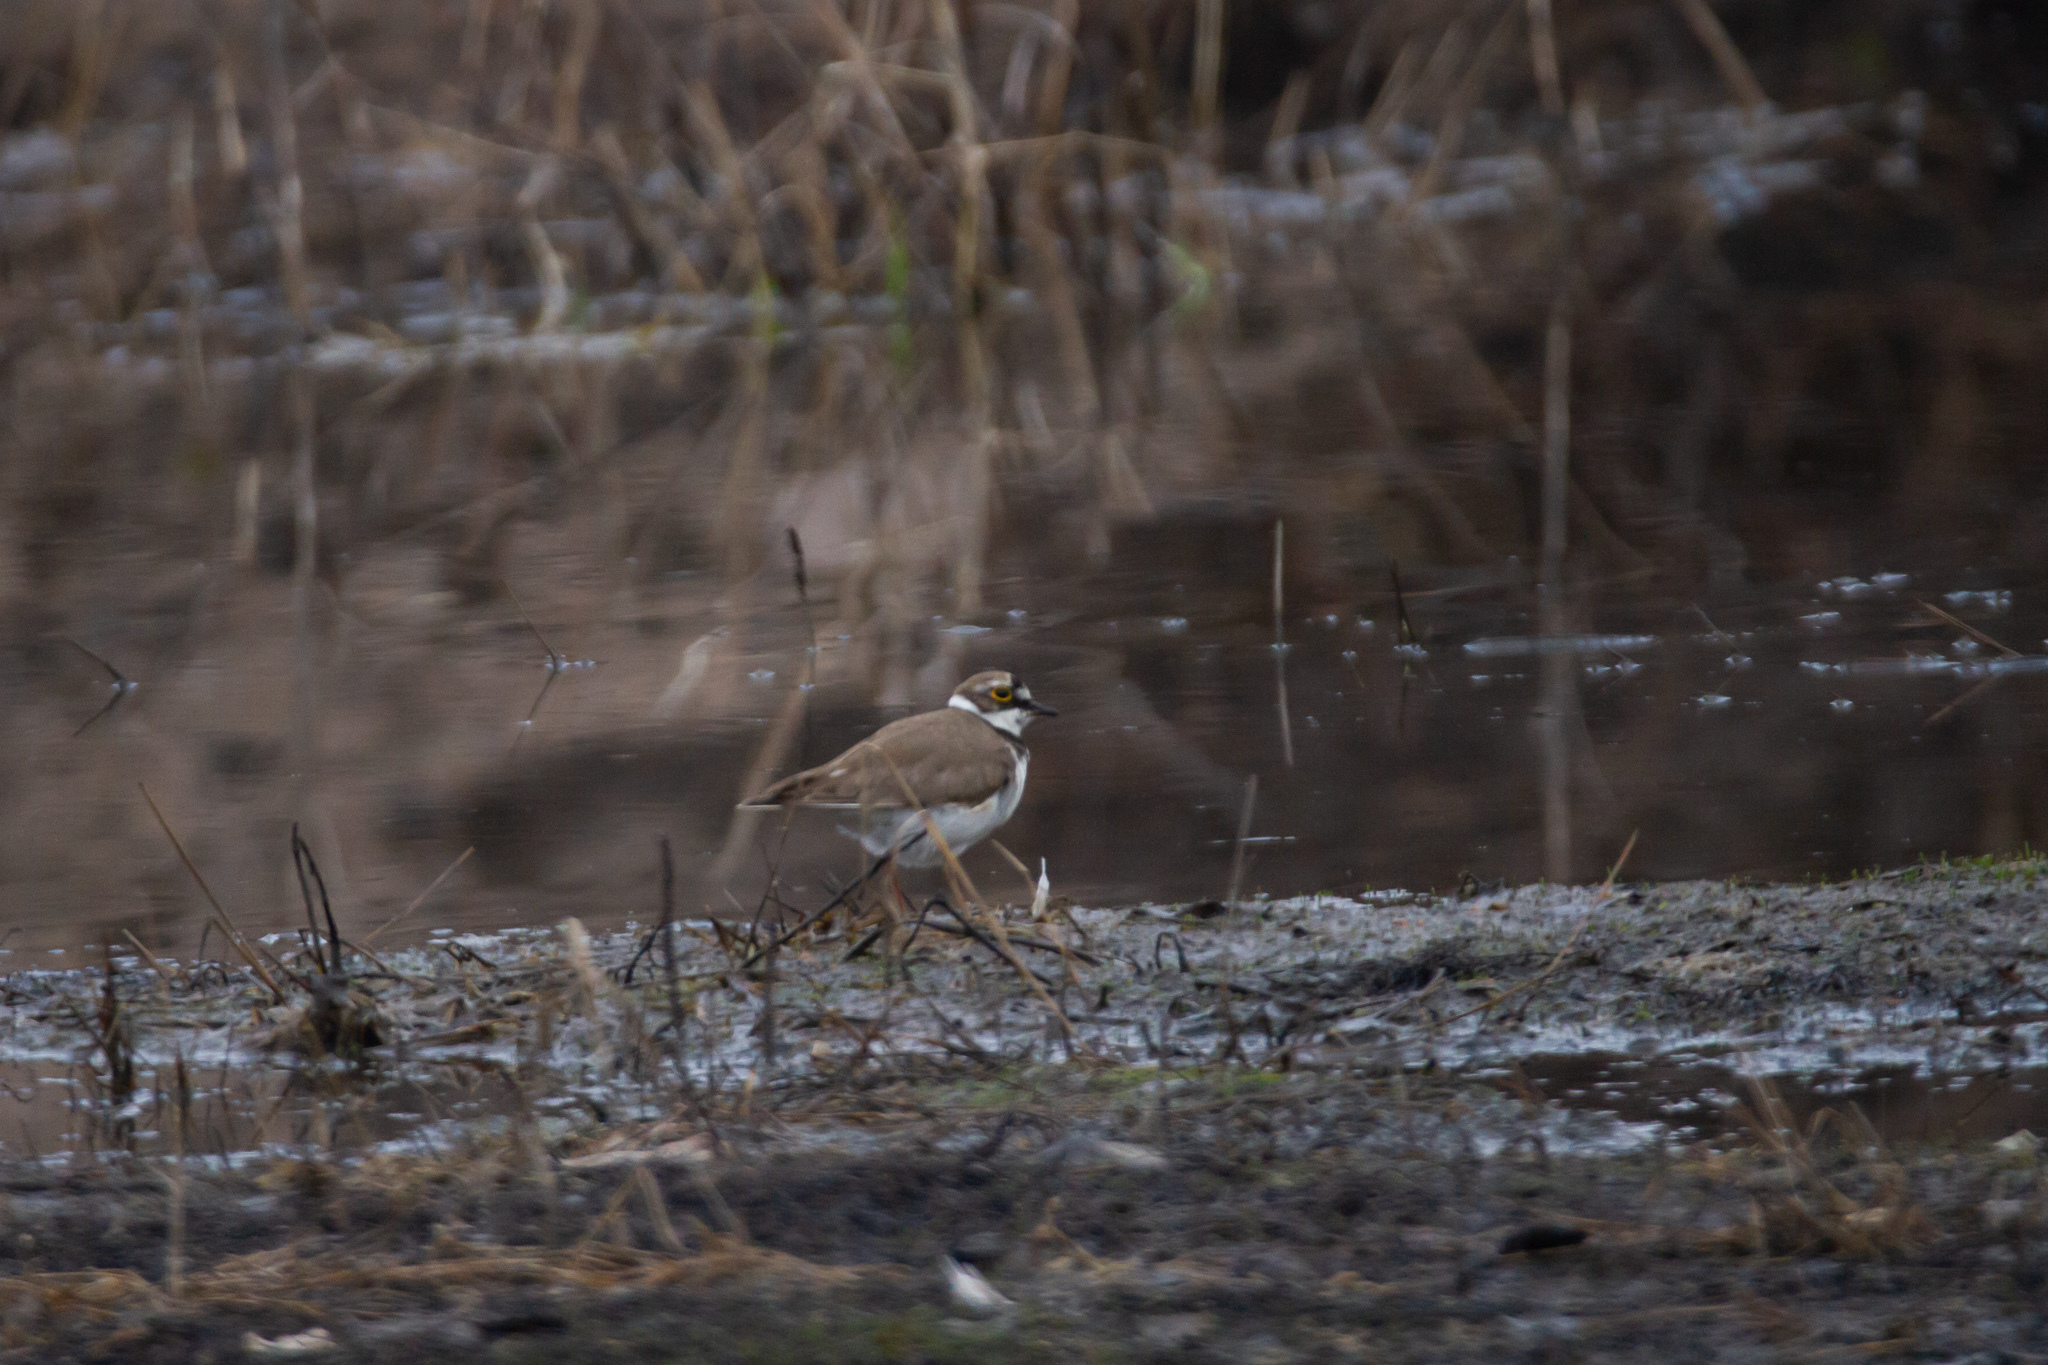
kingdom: Animalia
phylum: Chordata
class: Aves
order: Charadriiformes
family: Charadriidae
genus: Charadrius
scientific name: Charadrius dubius
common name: Little ringed plover
